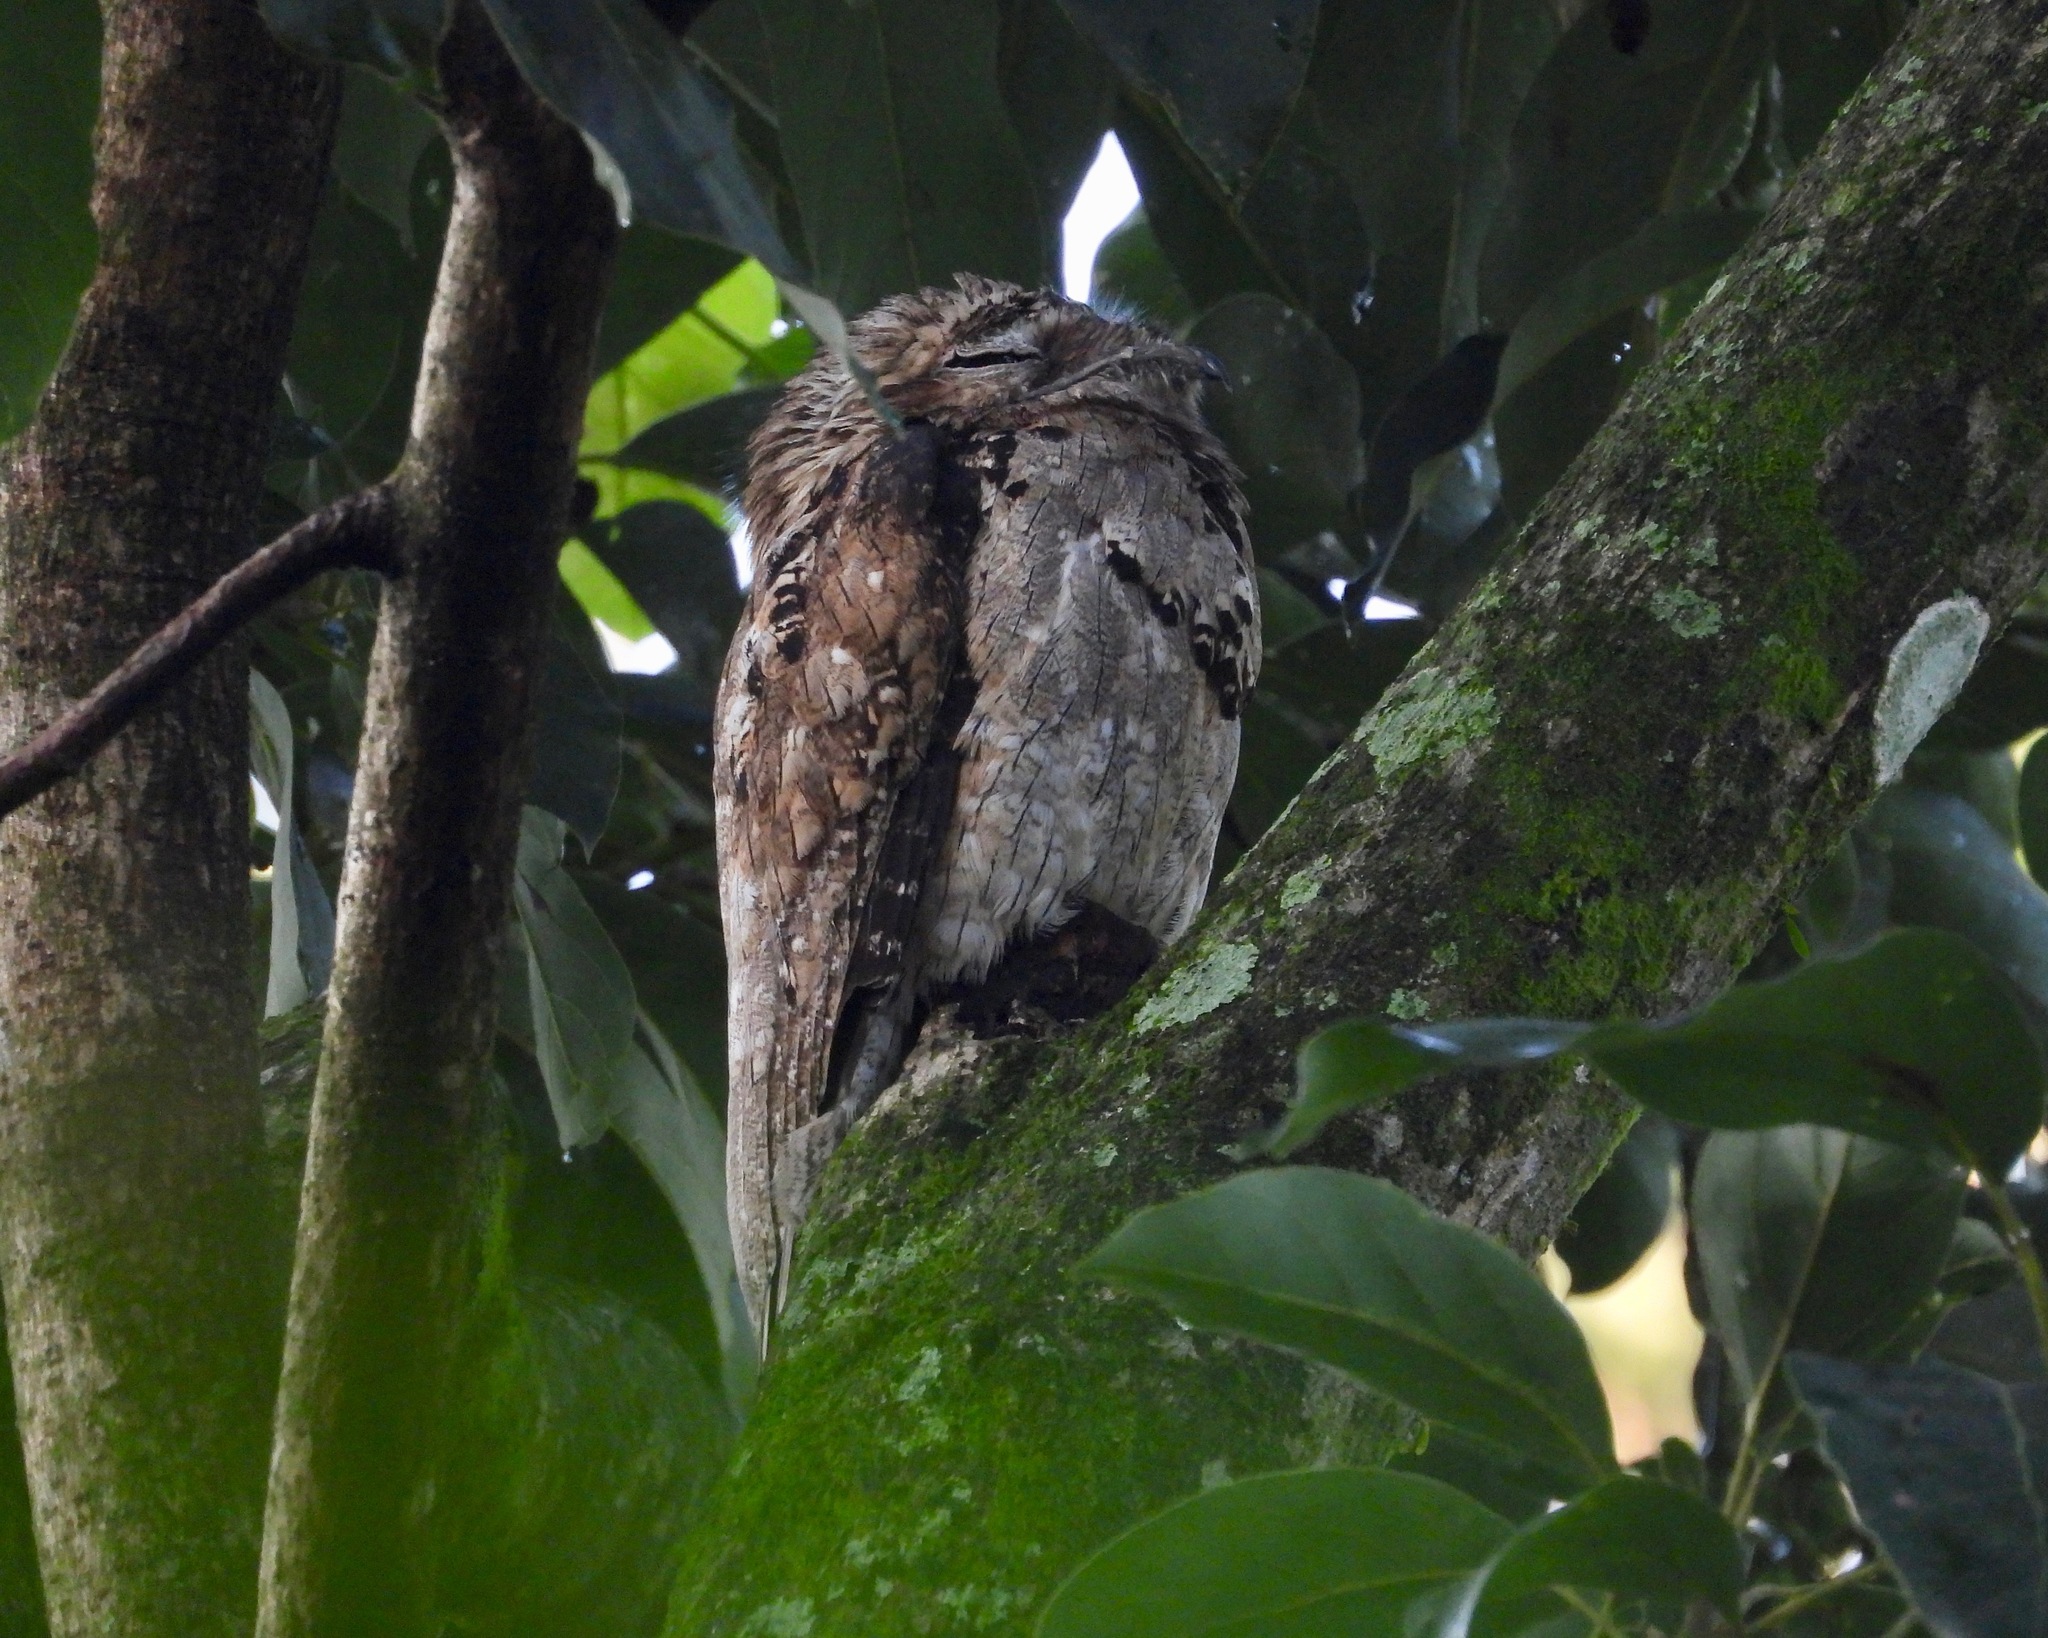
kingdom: Animalia
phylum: Chordata
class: Aves
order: Nyctibiiformes
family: Nyctibiidae
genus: Nyctibius
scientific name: Nyctibius jamaicensis
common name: Northern potoo
